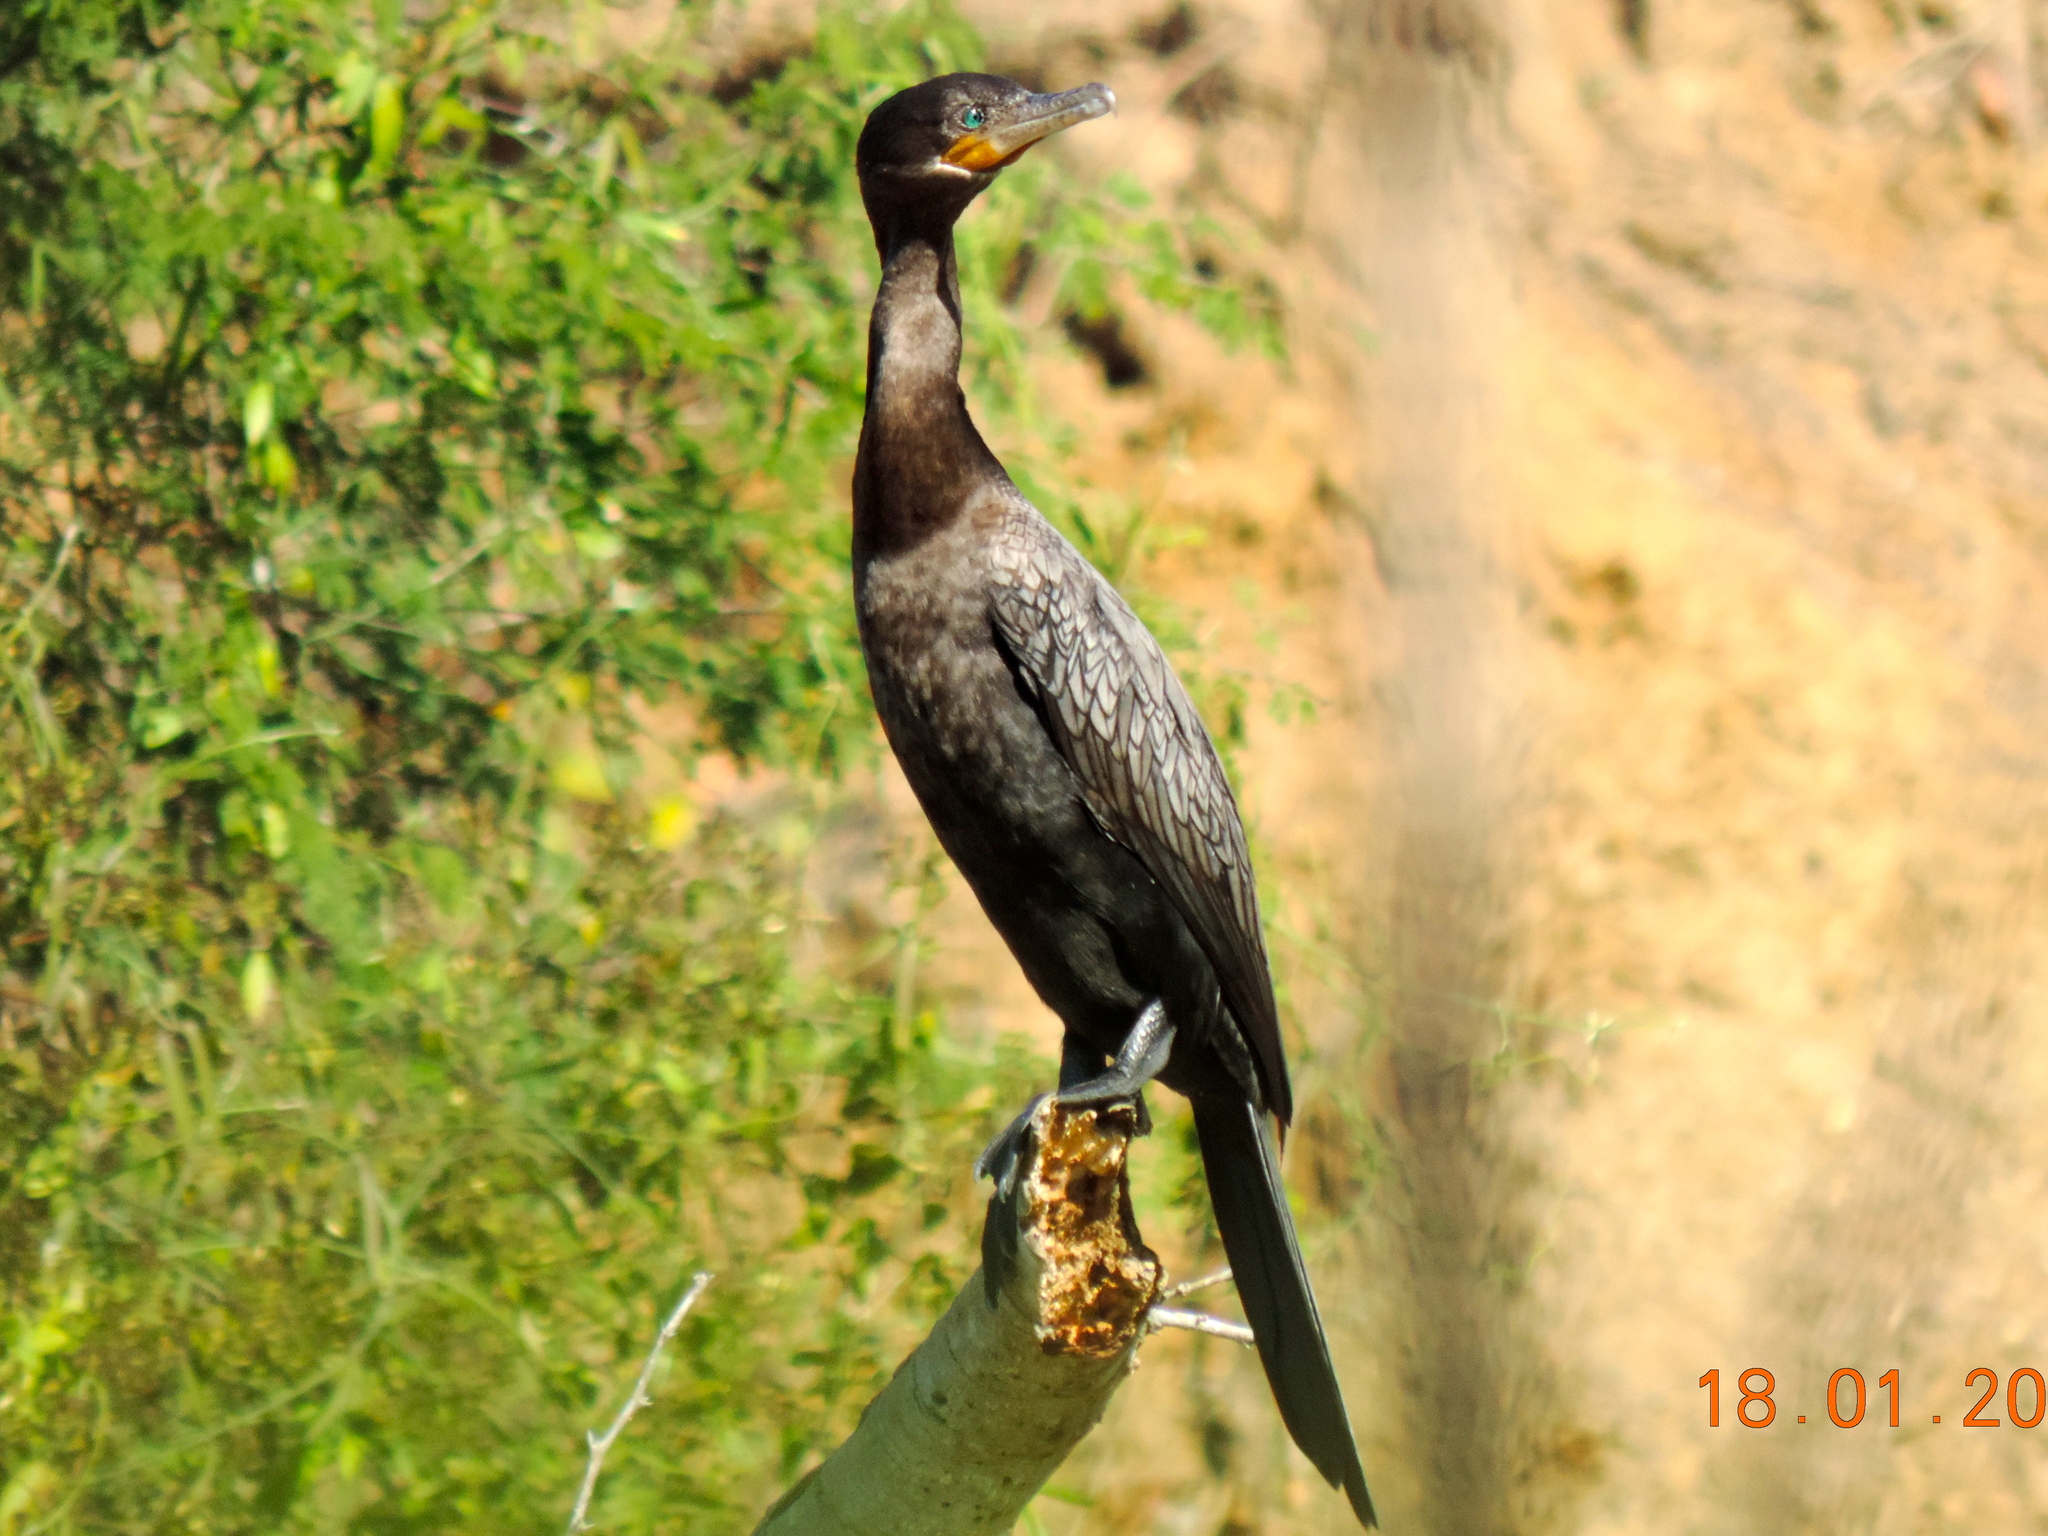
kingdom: Animalia
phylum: Chordata
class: Aves
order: Suliformes
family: Phalacrocoracidae
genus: Phalacrocorax
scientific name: Phalacrocorax brasilianus
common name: Neotropic cormorant
